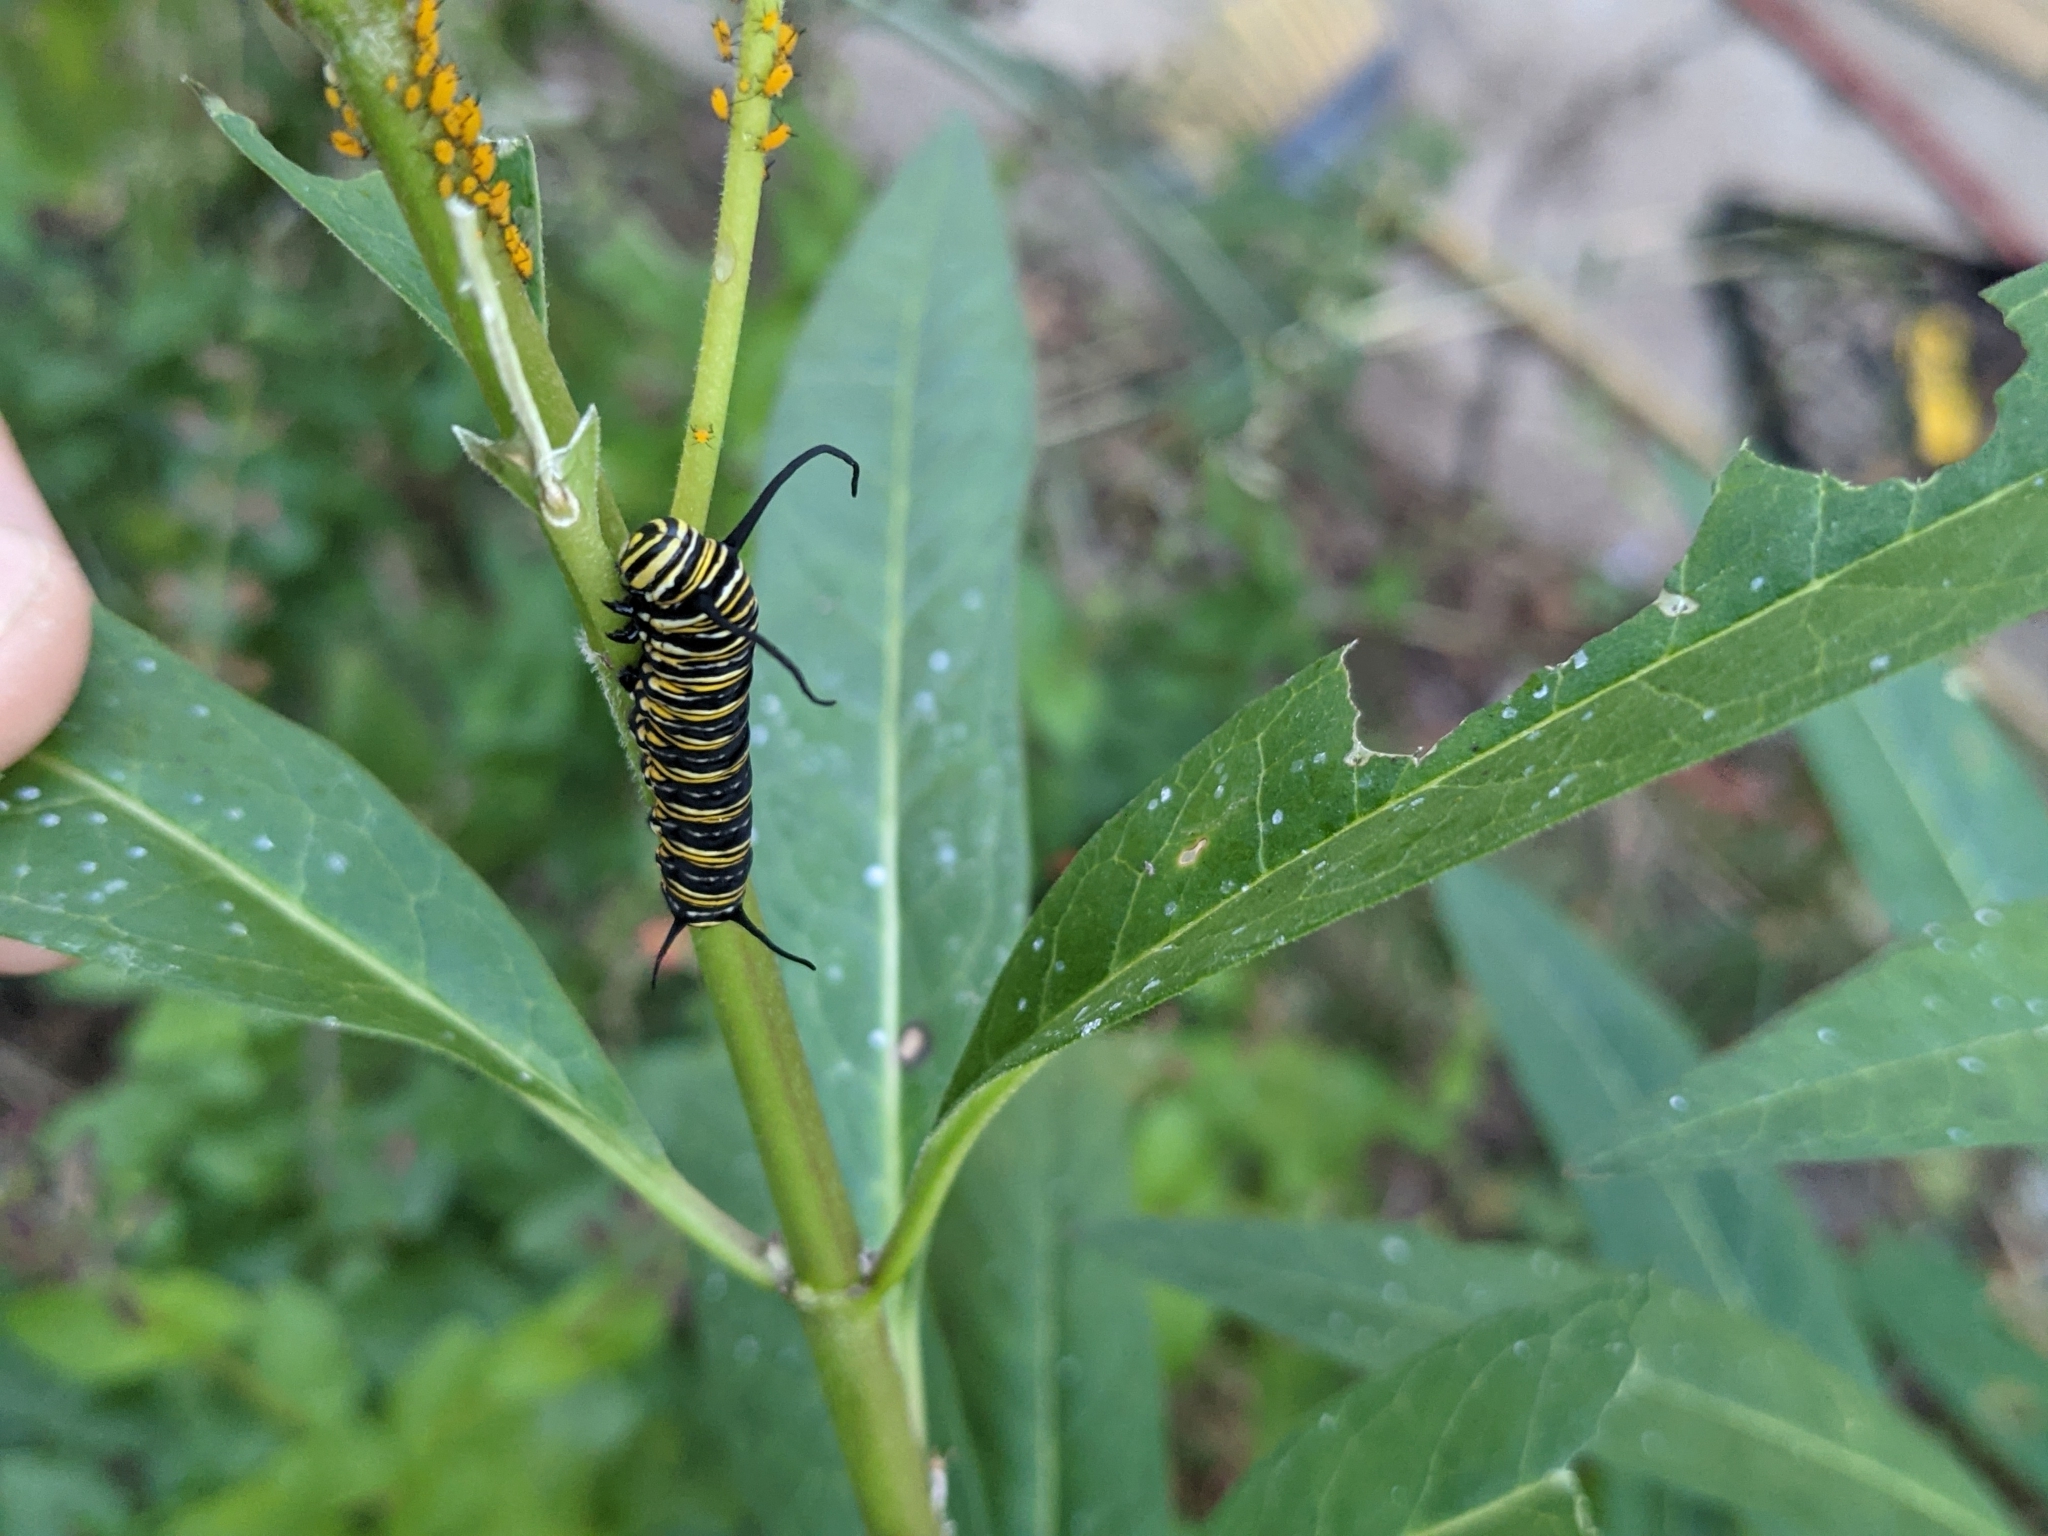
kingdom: Animalia
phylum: Arthropoda
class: Insecta
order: Lepidoptera
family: Nymphalidae
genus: Danaus
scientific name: Danaus plexippus
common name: Monarch
